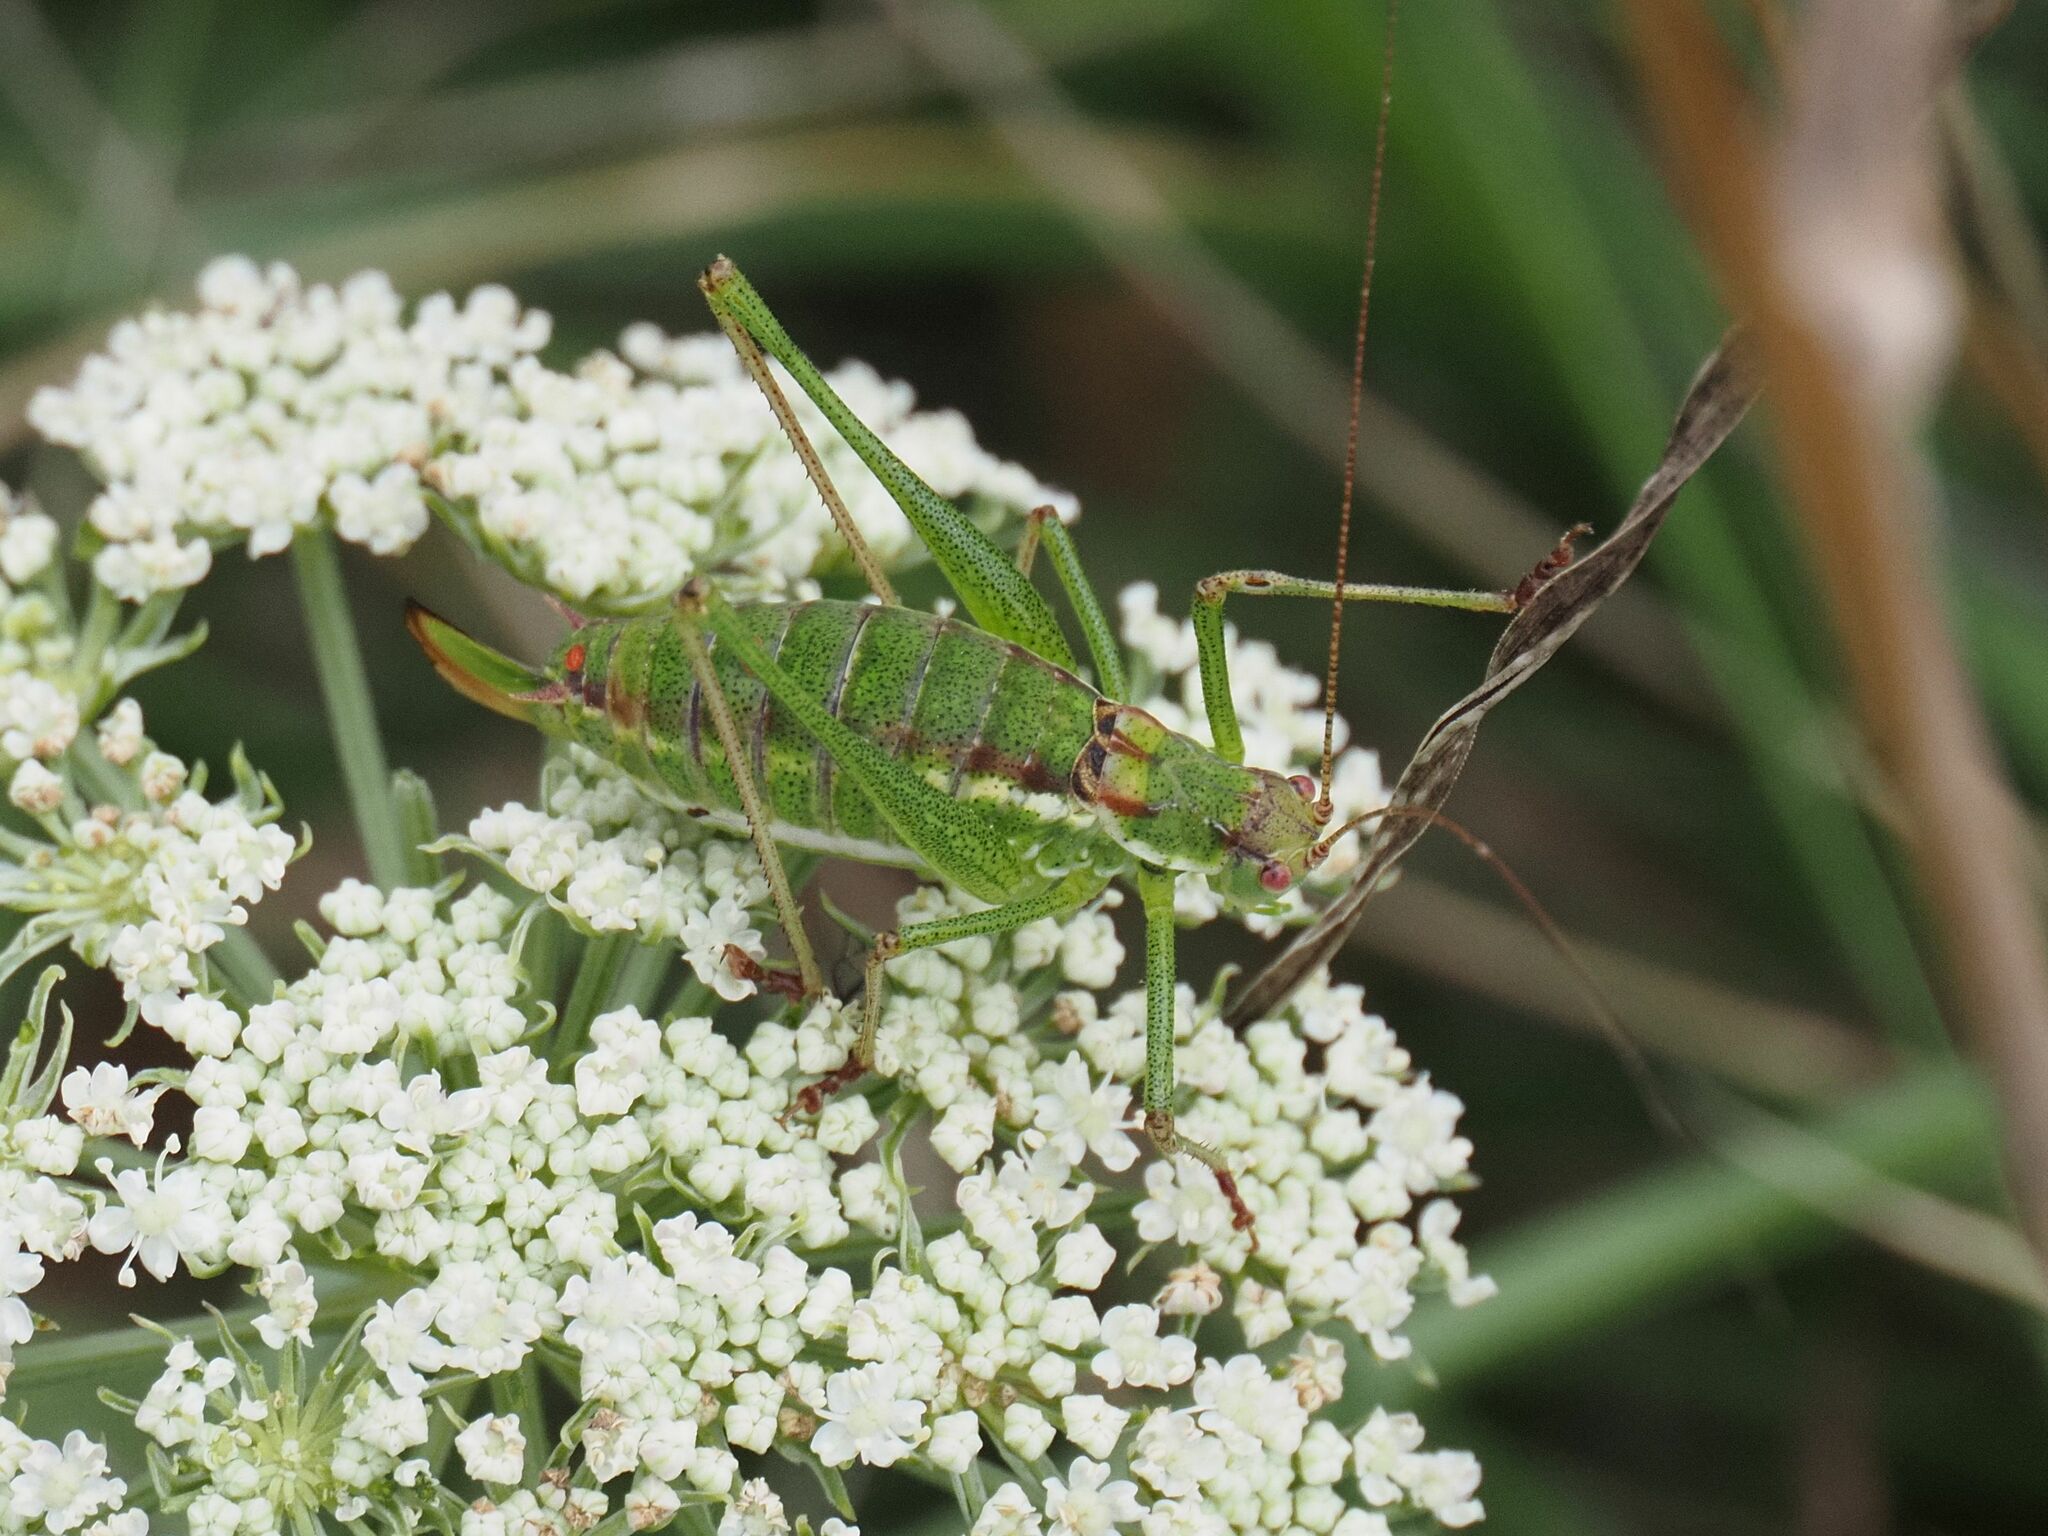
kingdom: Animalia
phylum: Arthropoda
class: Insecta
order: Orthoptera
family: Tettigoniidae
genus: Leptophyes
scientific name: Leptophyes albovittata
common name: Striped bush-cricket
